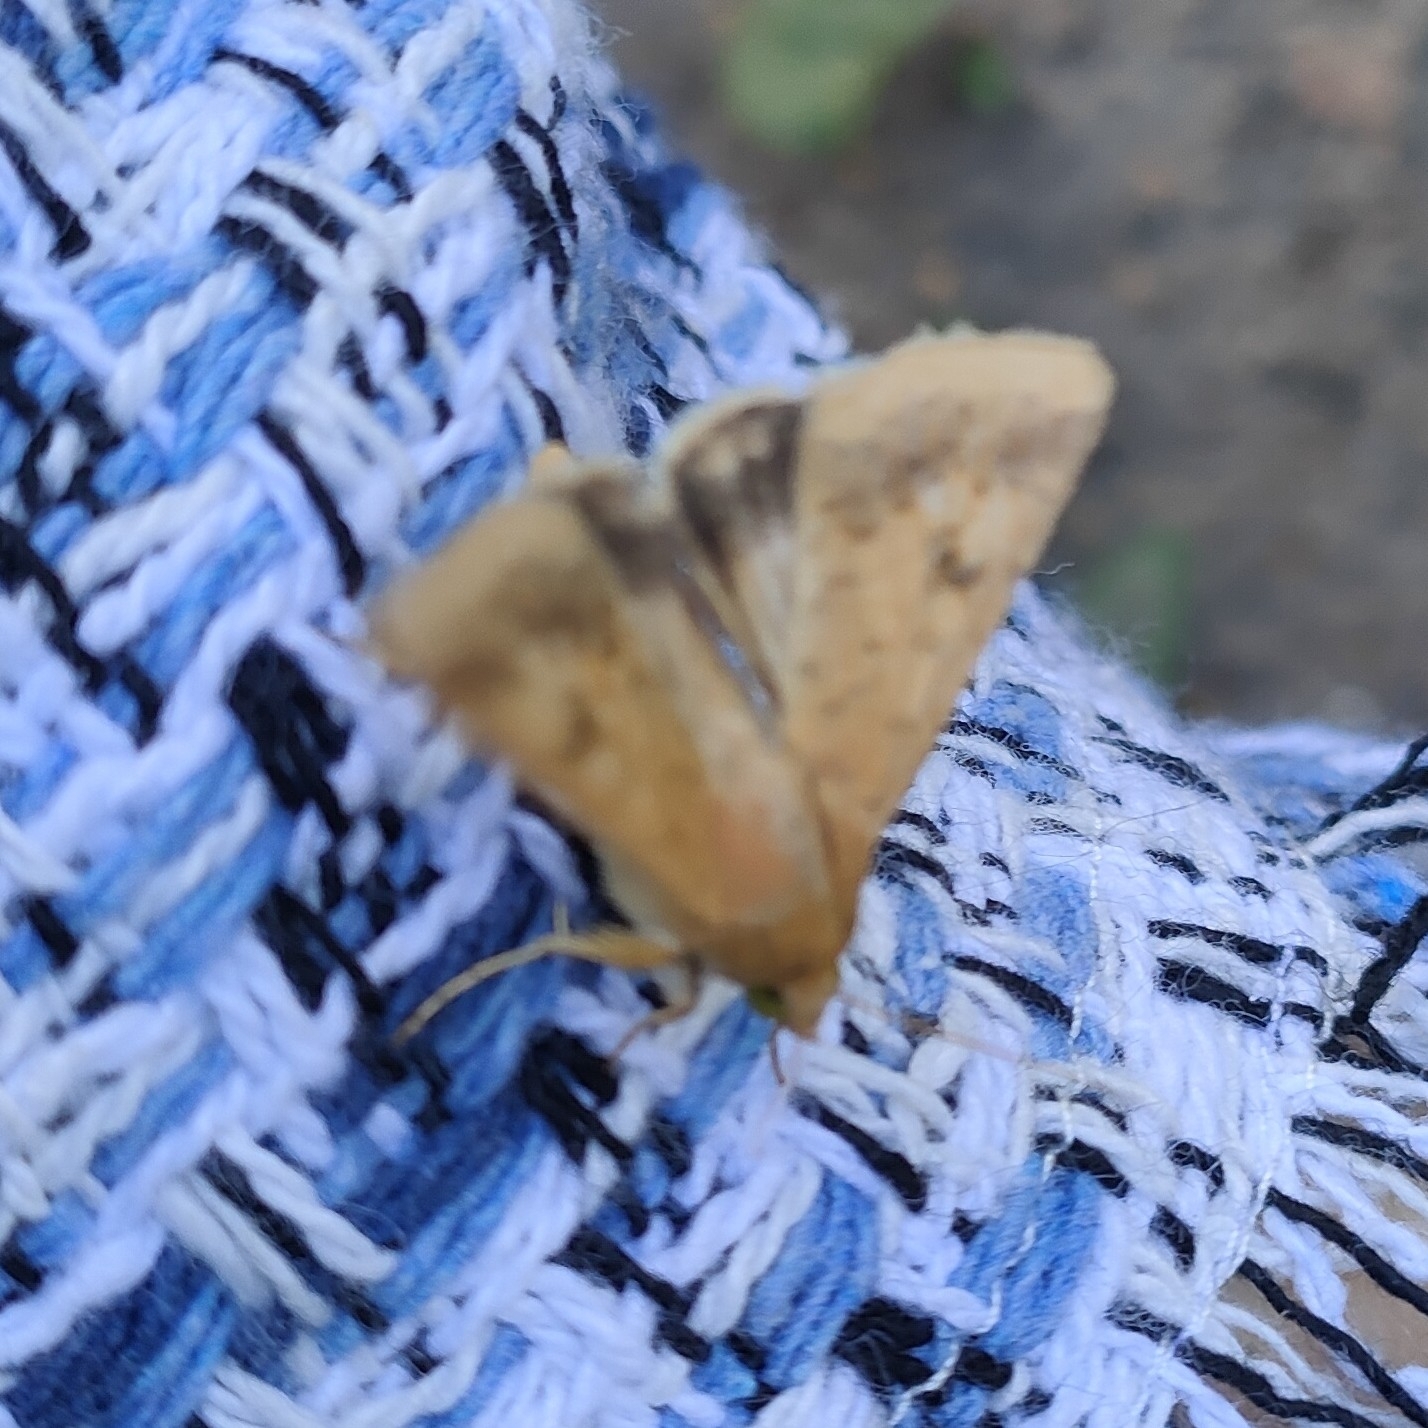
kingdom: Animalia
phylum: Arthropoda
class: Insecta
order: Lepidoptera
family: Noctuidae
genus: Helicoverpa
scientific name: Helicoverpa armigera
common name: Cotton bollworm
